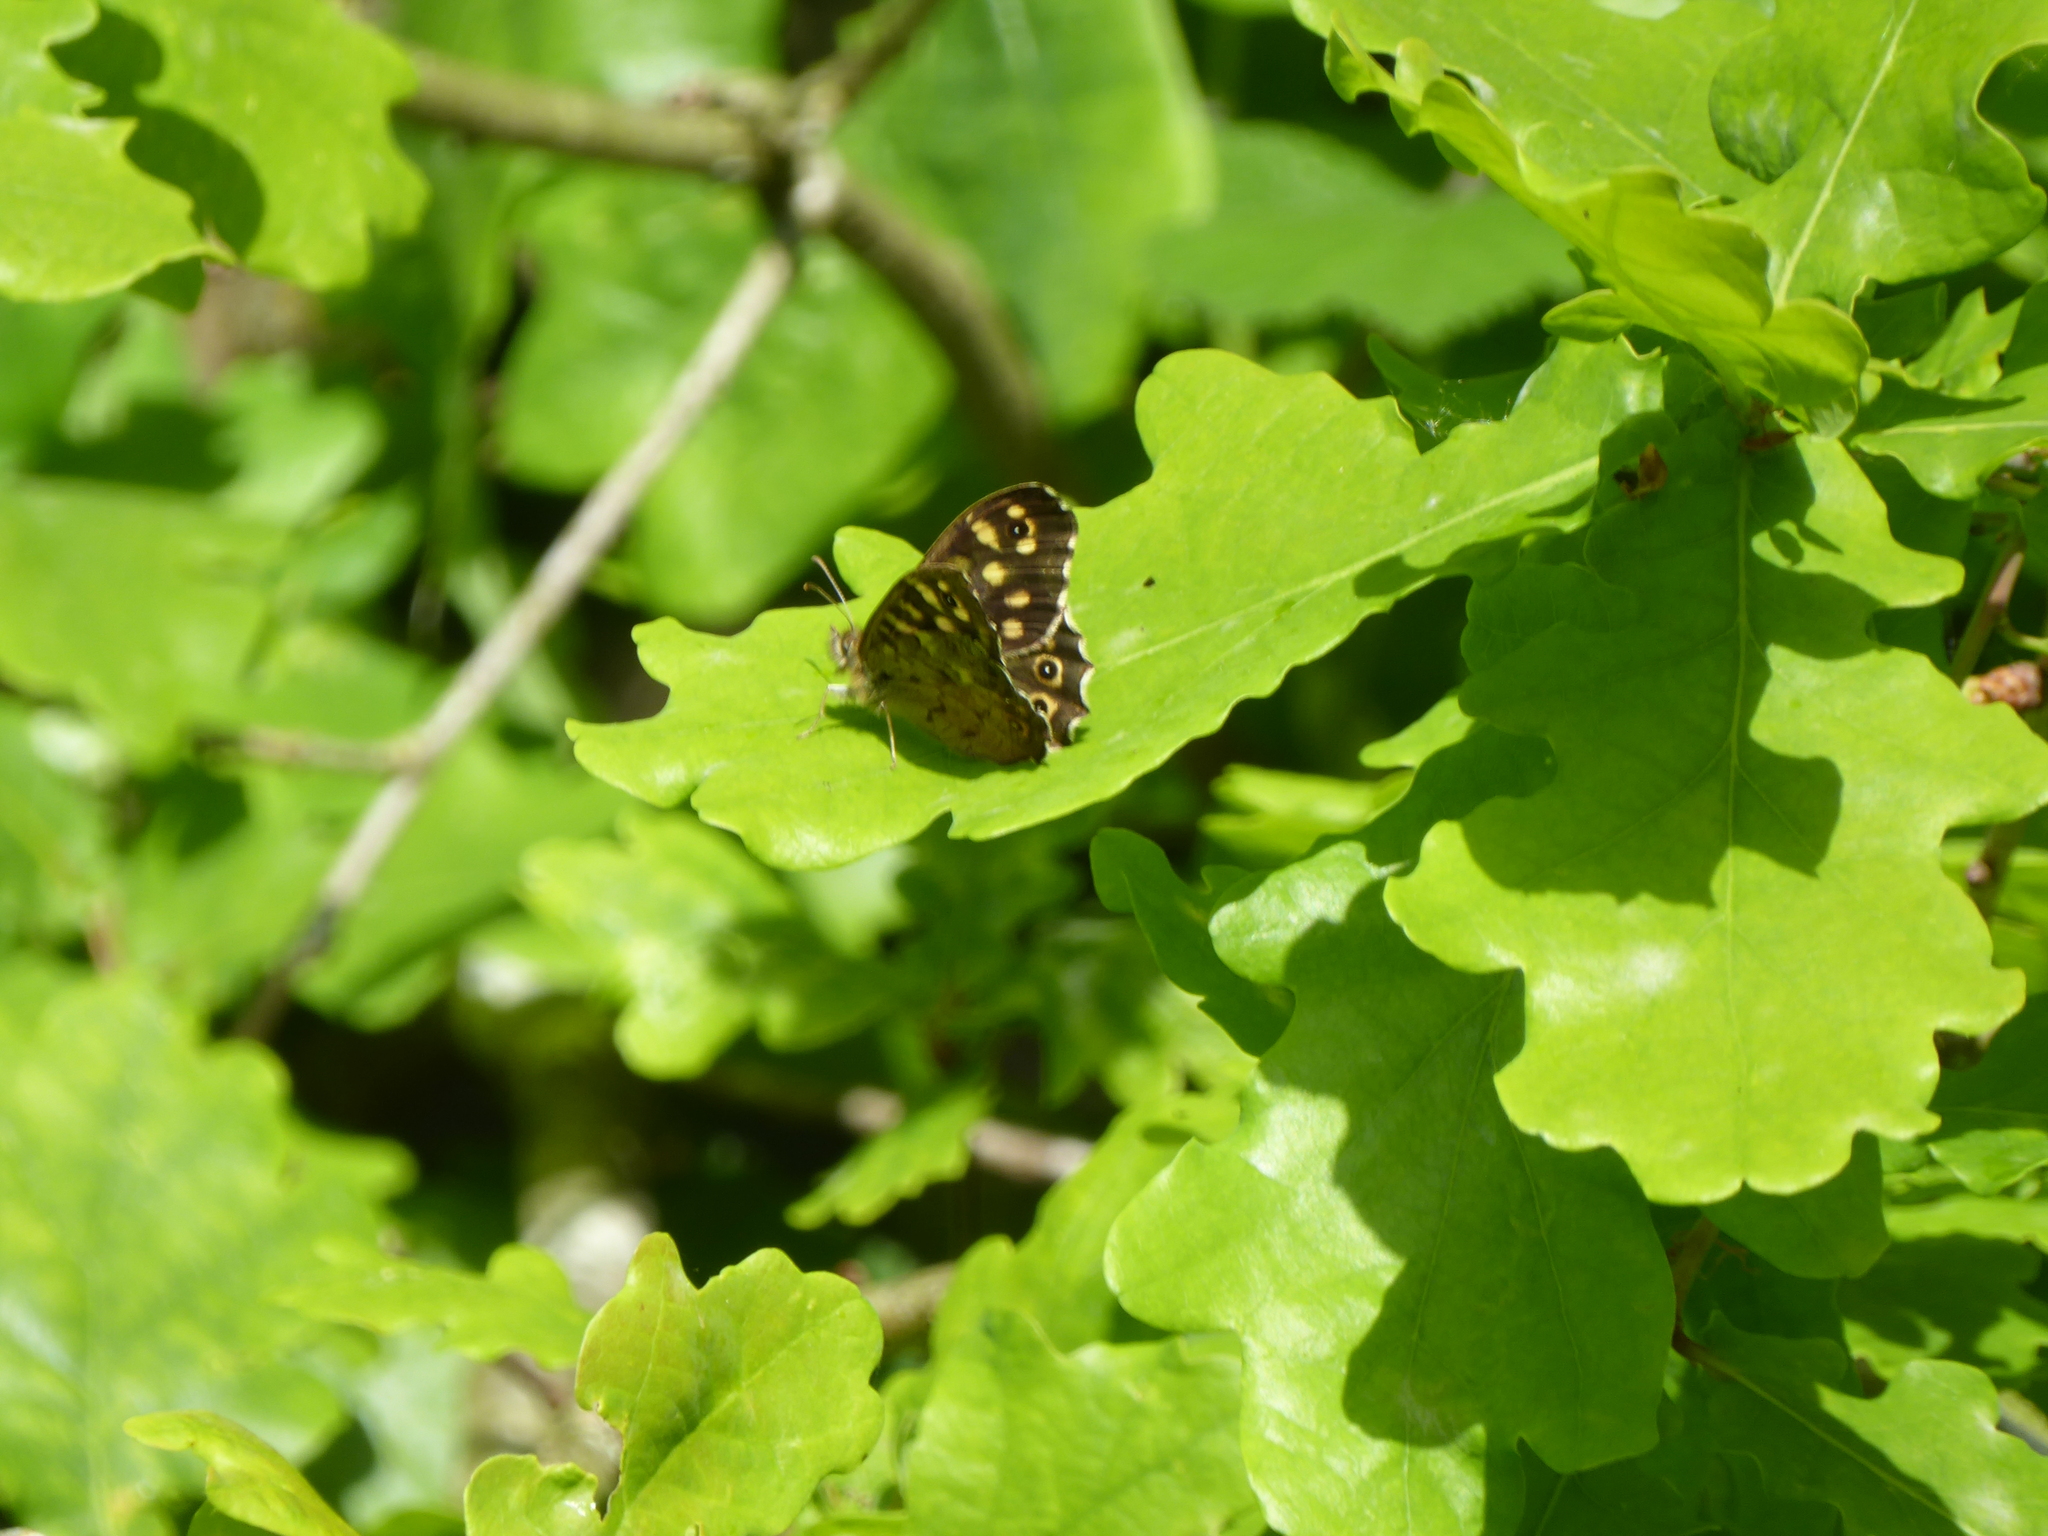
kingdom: Animalia
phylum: Arthropoda
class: Insecta
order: Lepidoptera
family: Nymphalidae
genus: Pararge
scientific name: Pararge aegeria
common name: Speckled wood
